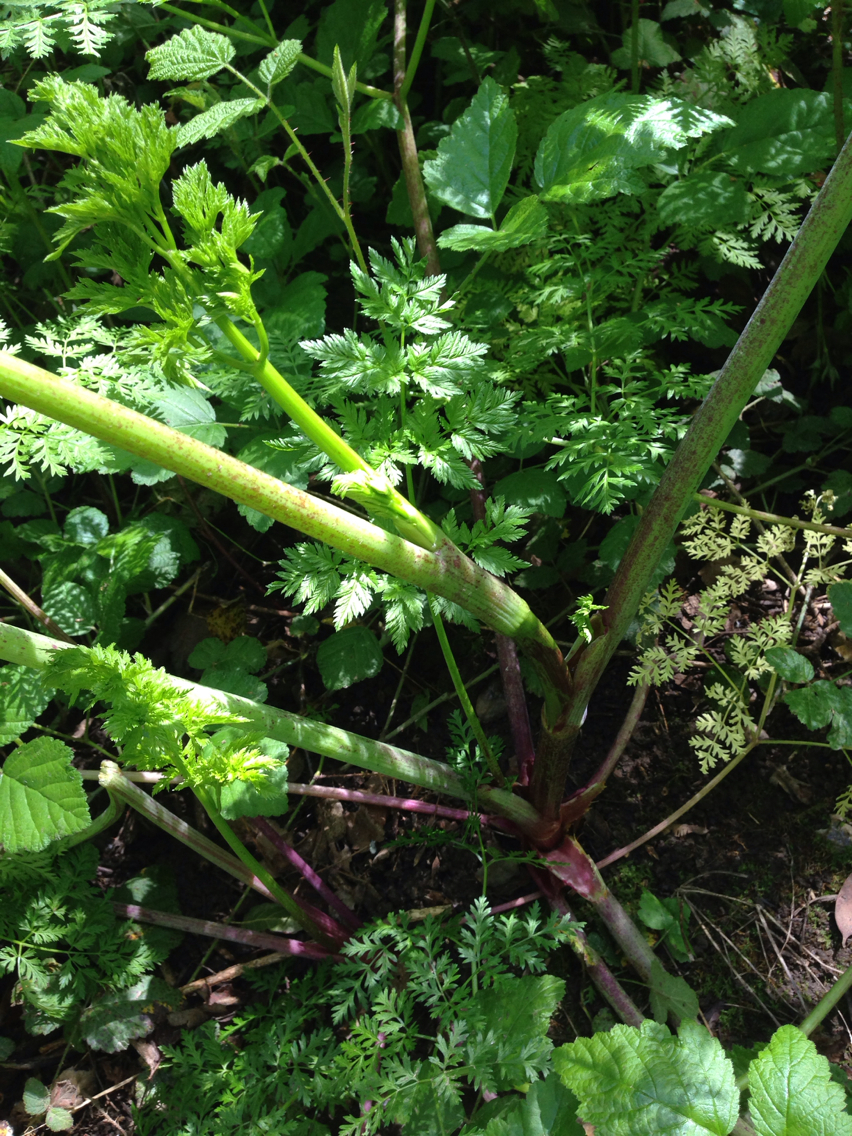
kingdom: Plantae
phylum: Tracheophyta
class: Magnoliopsida
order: Apiales
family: Apiaceae
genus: Conium
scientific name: Conium maculatum
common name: Hemlock
